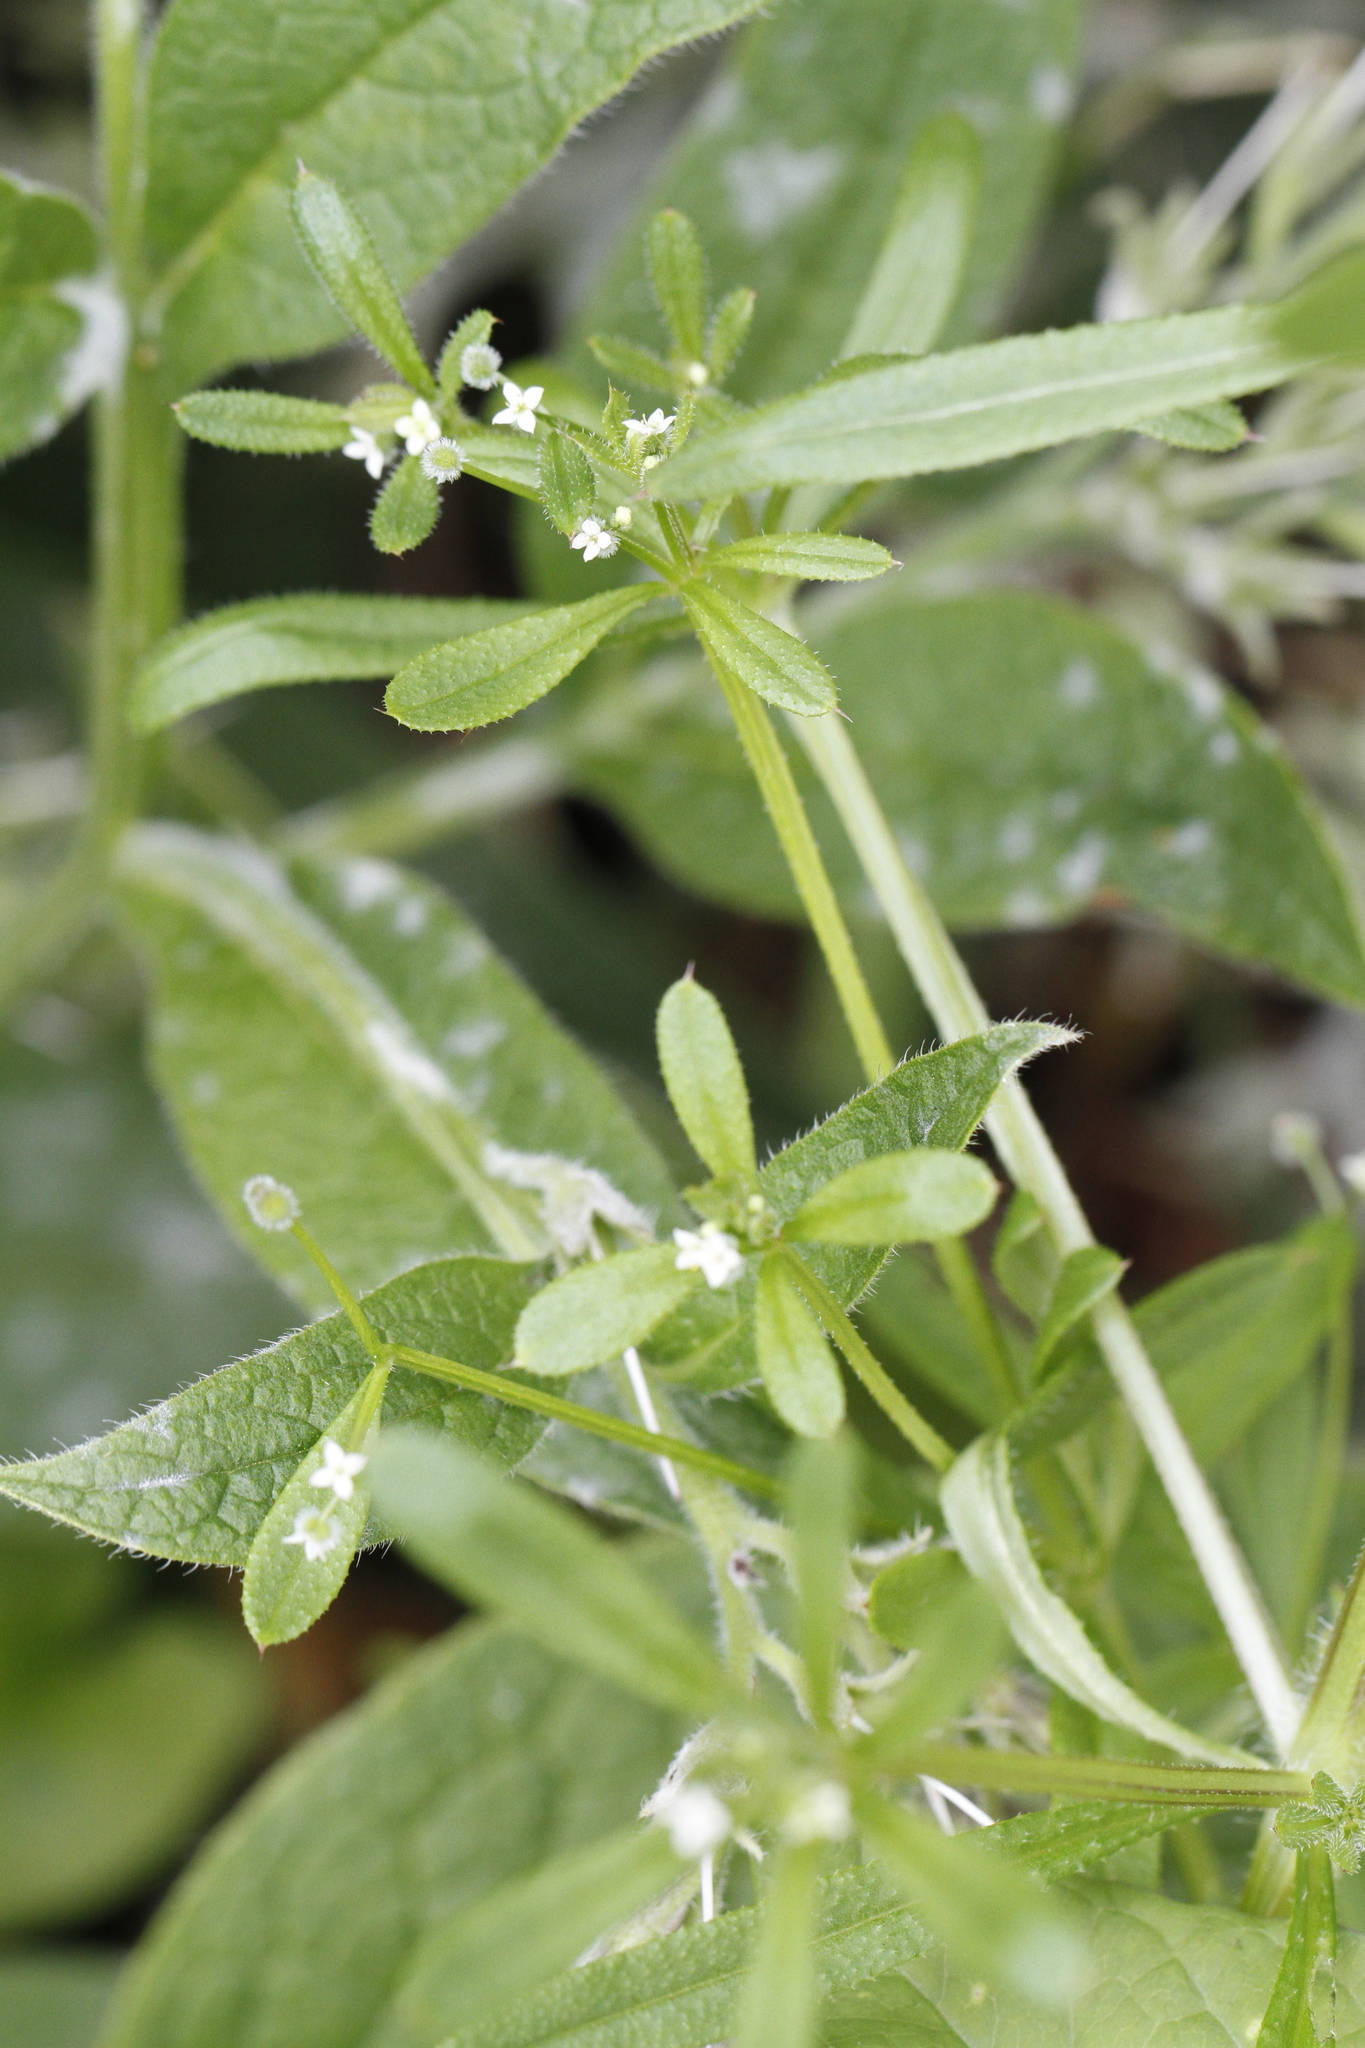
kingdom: Plantae
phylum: Tracheophyta
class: Magnoliopsida
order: Gentianales
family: Rubiaceae
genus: Galium
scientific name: Galium aparine
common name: Cleavers
